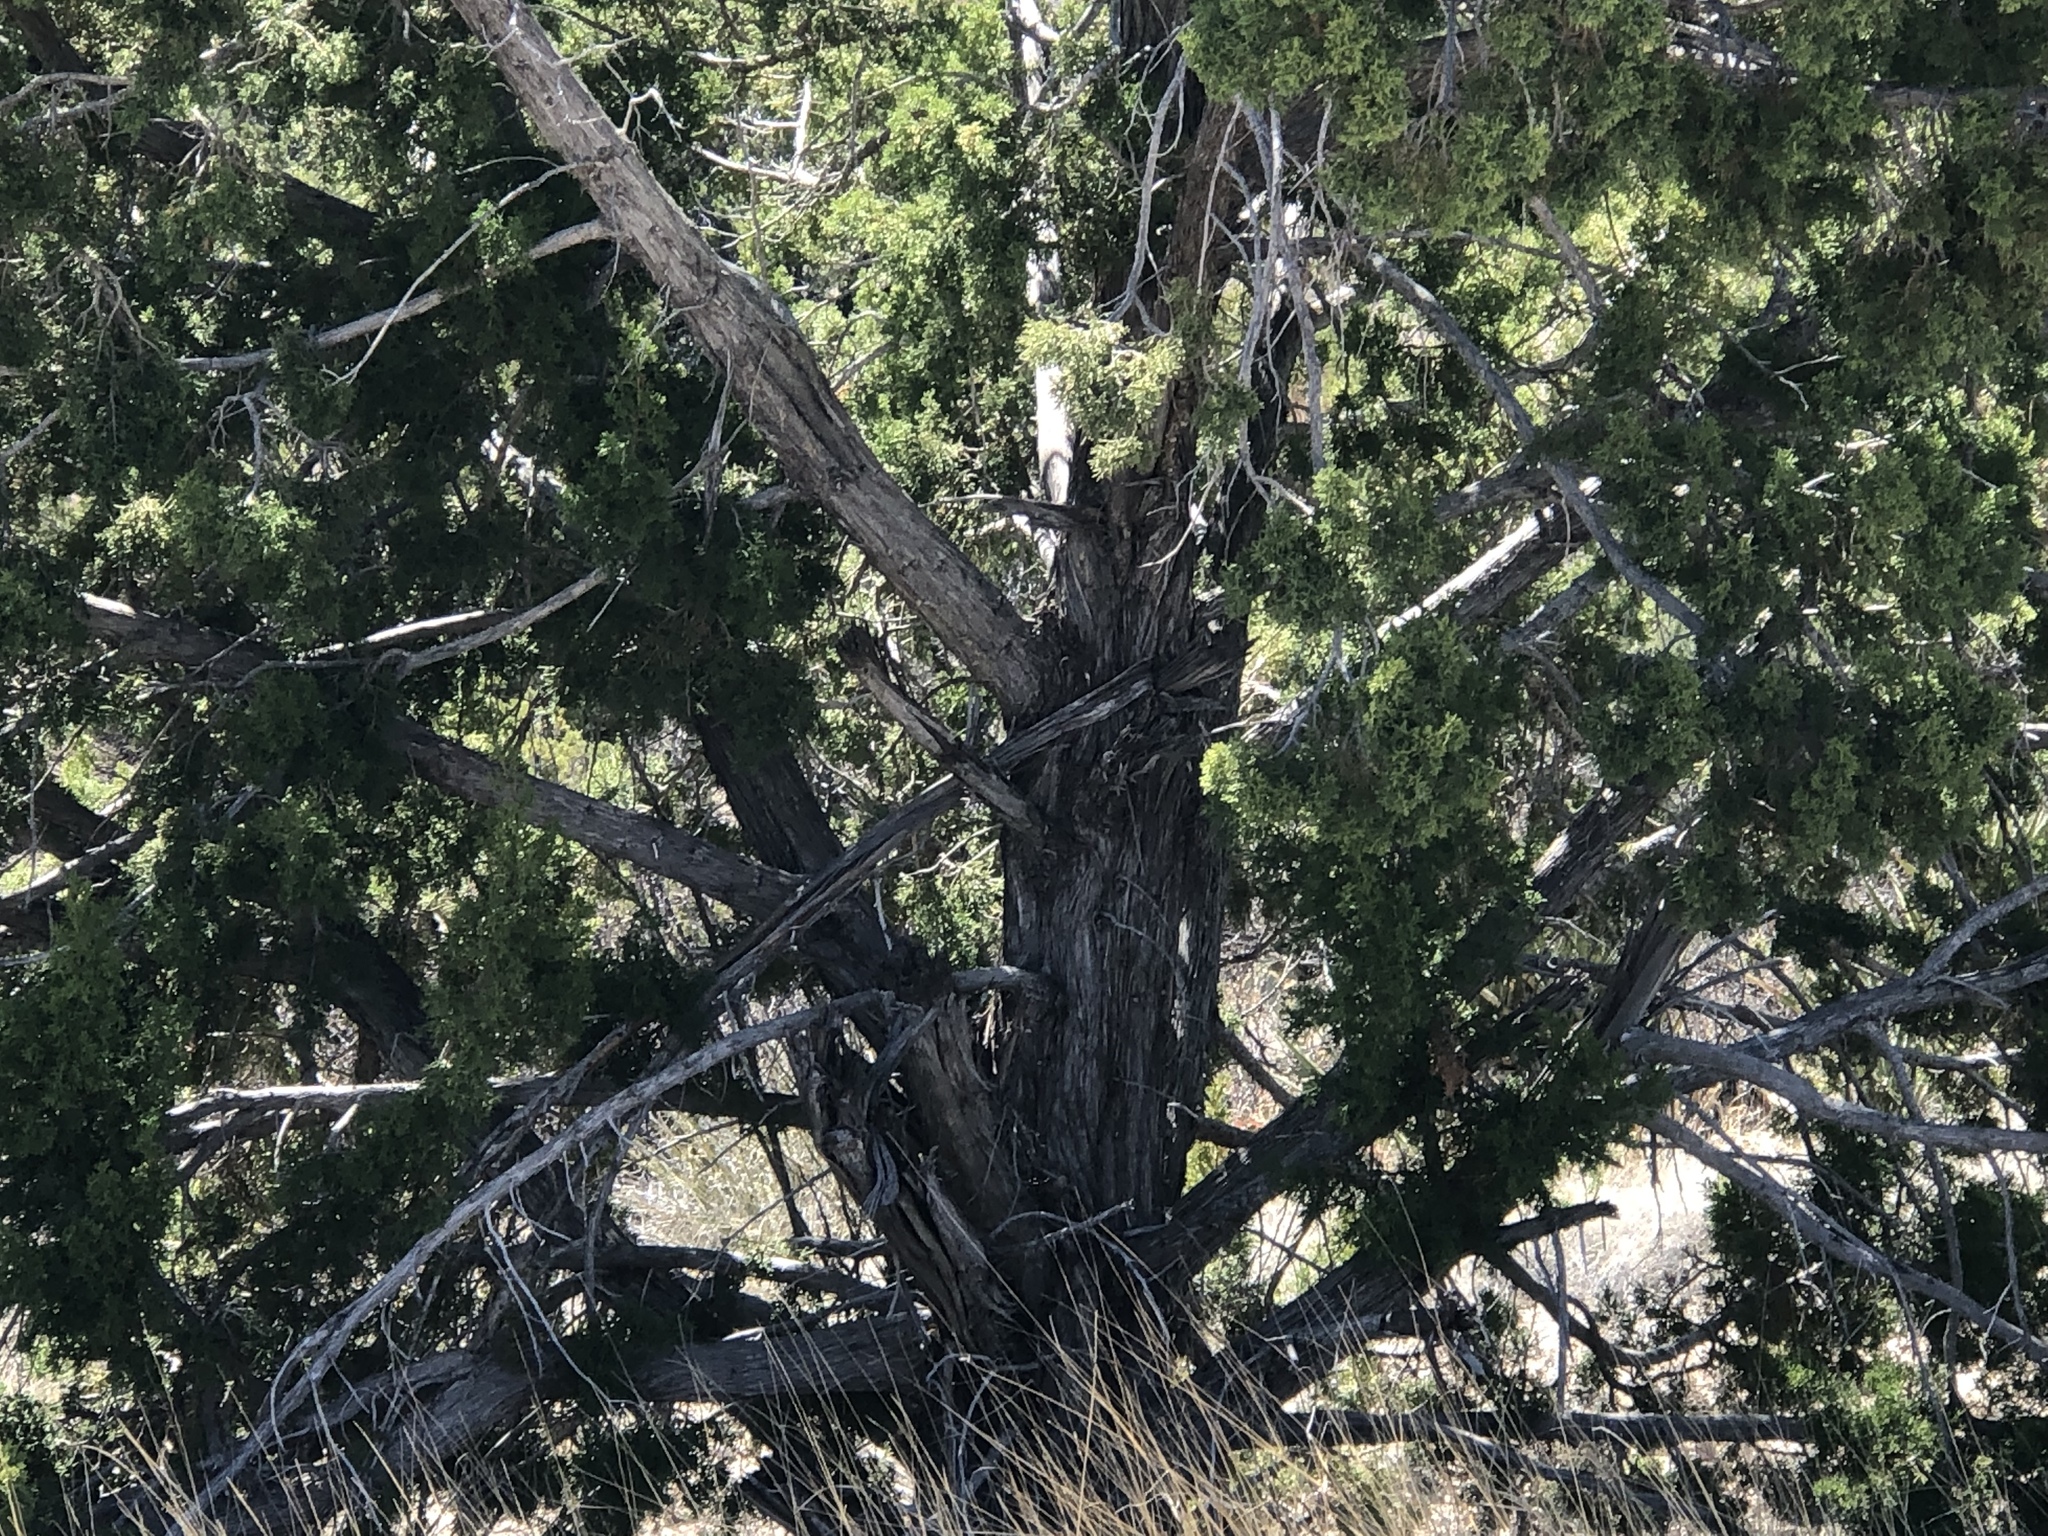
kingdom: Plantae
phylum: Tracheophyta
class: Pinopsida
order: Pinales
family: Cupressaceae
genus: Juniperus
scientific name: Juniperus monosperma
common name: One-seed juniper
